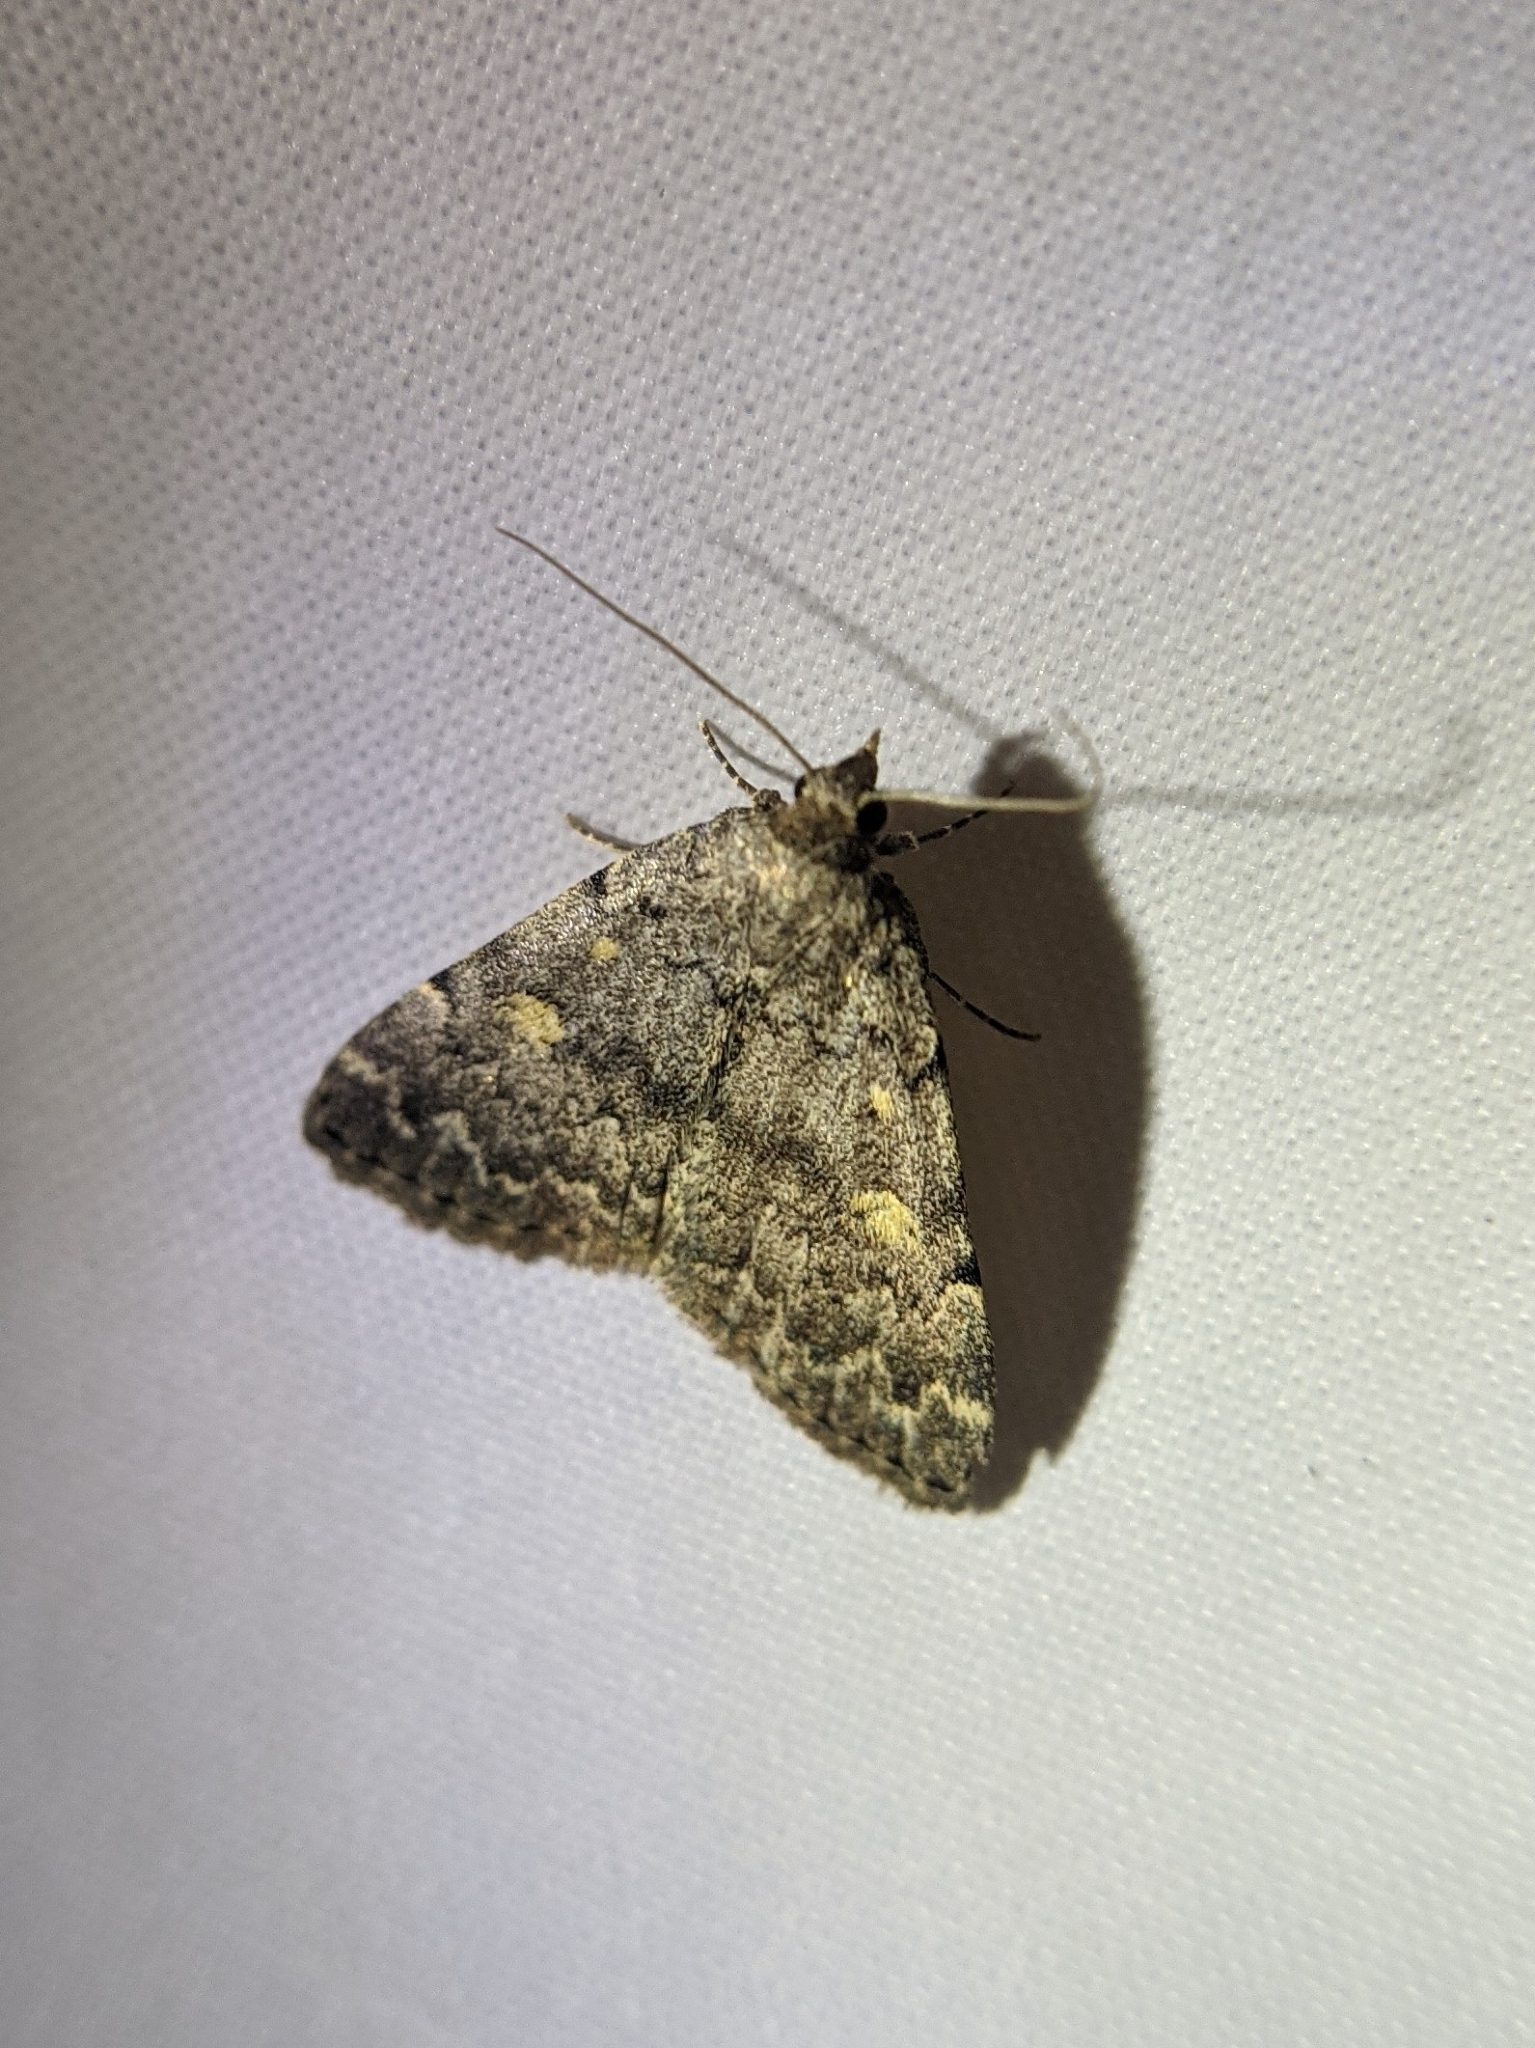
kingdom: Animalia
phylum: Arthropoda
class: Insecta
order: Lepidoptera
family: Erebidae
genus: Idia
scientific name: Idia aemula
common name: Common idia moth
